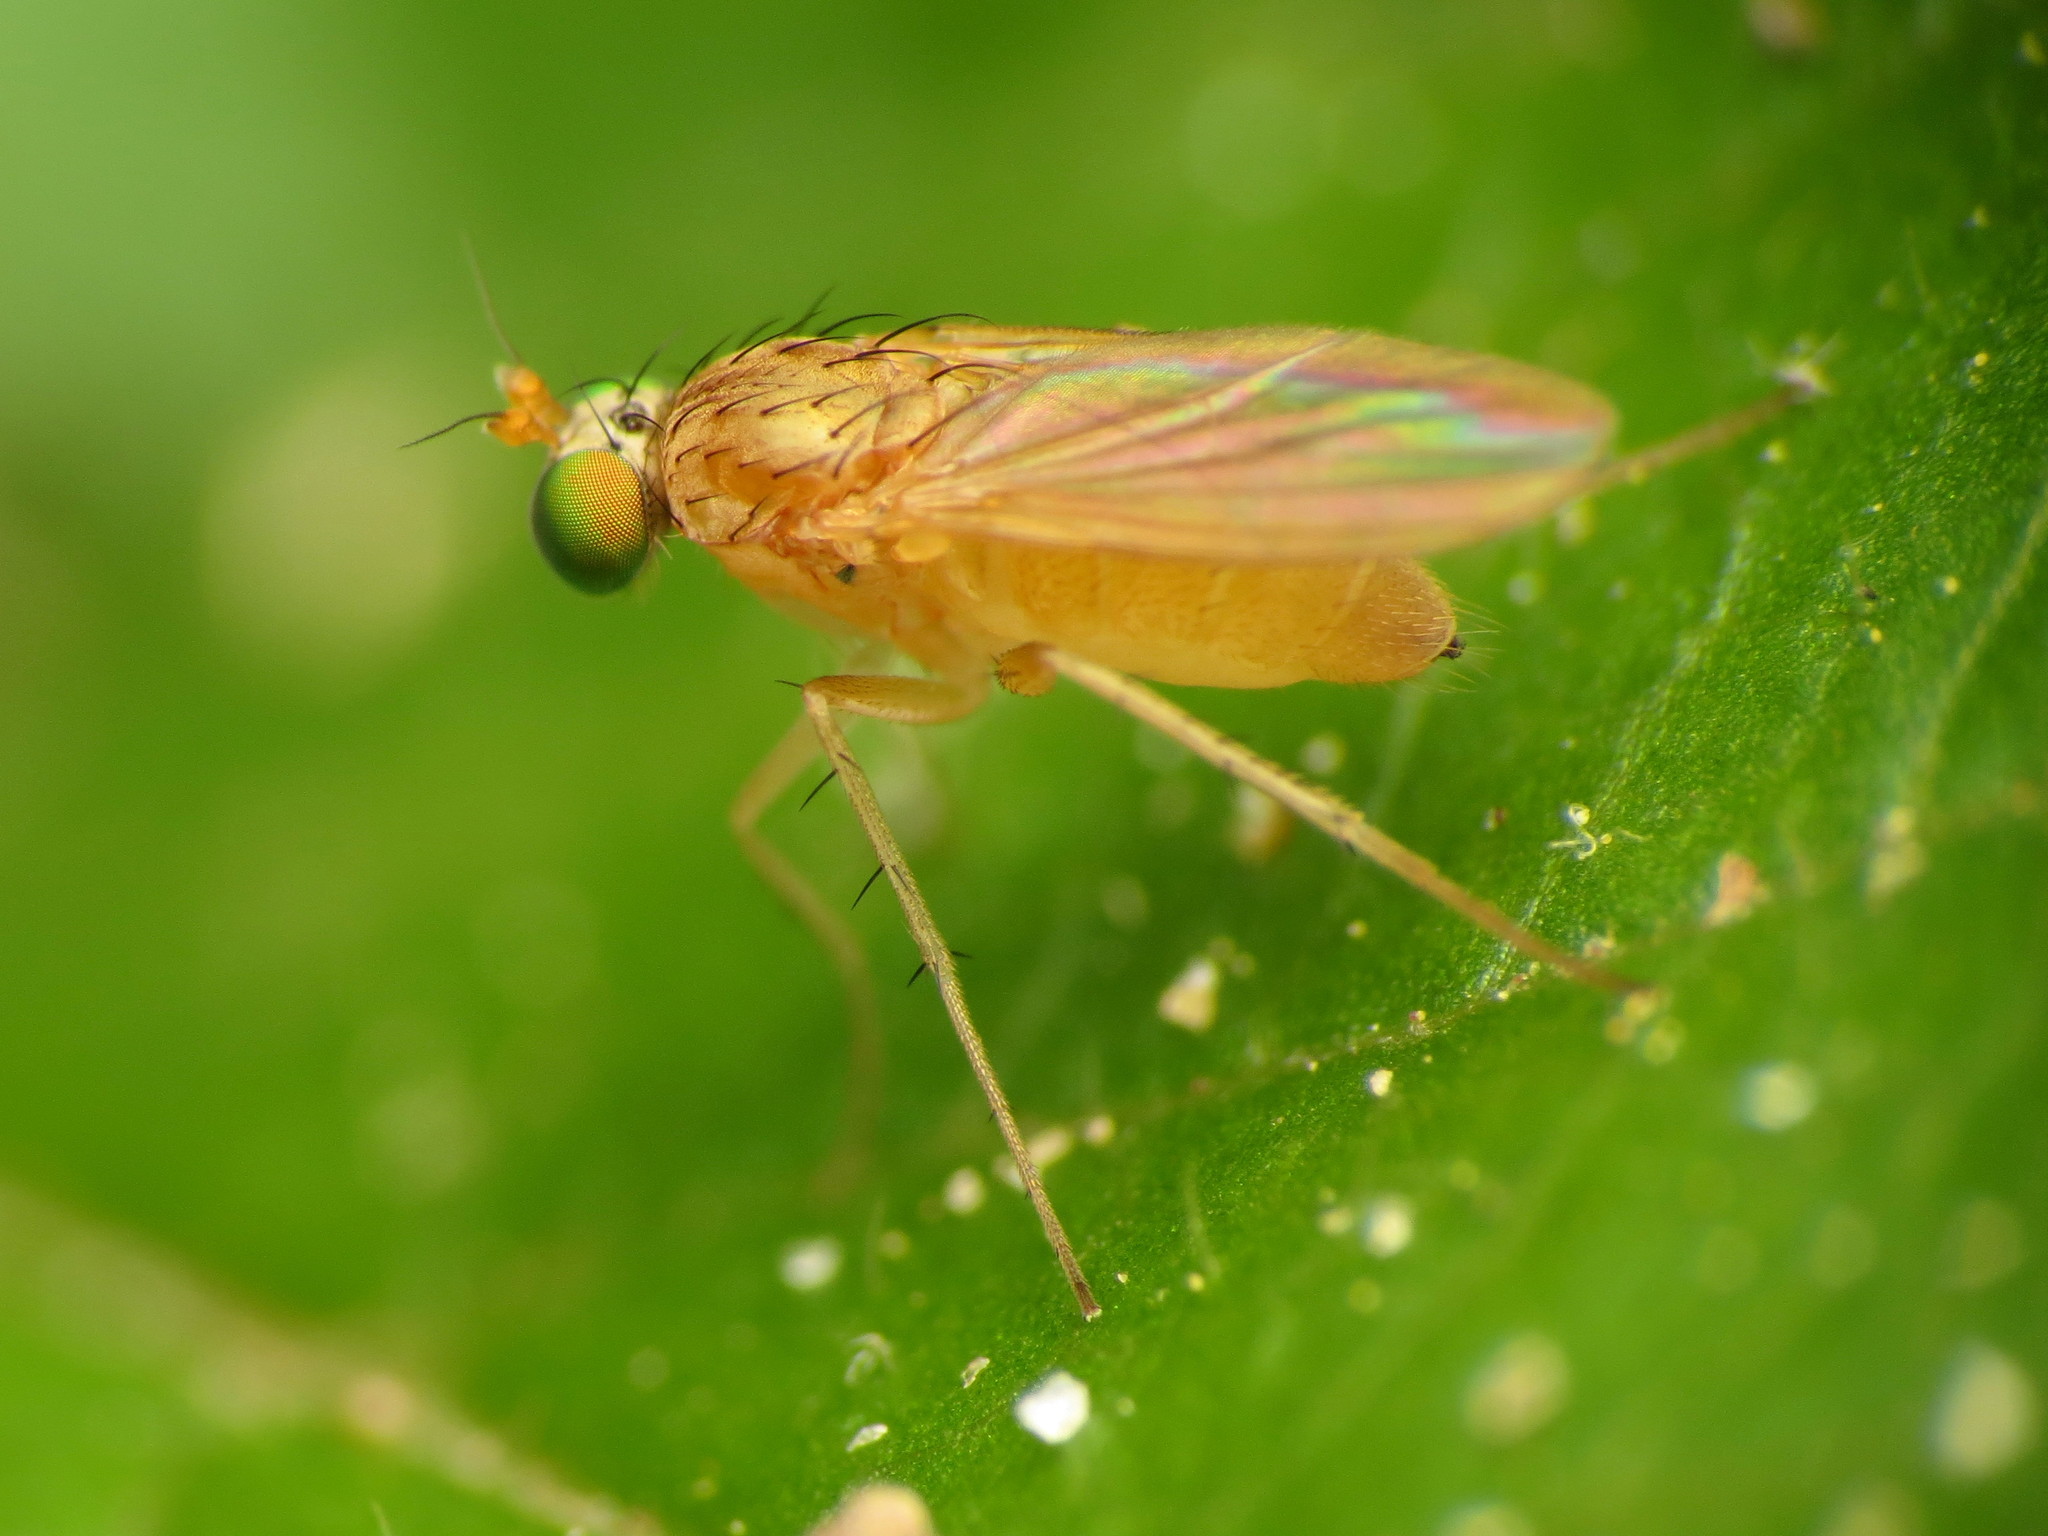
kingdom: Animalia
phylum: Arthropoda
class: Insecta
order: Diptera
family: Dolichopodidae
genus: Gymnopternus
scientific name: Gymnopternus flavus
